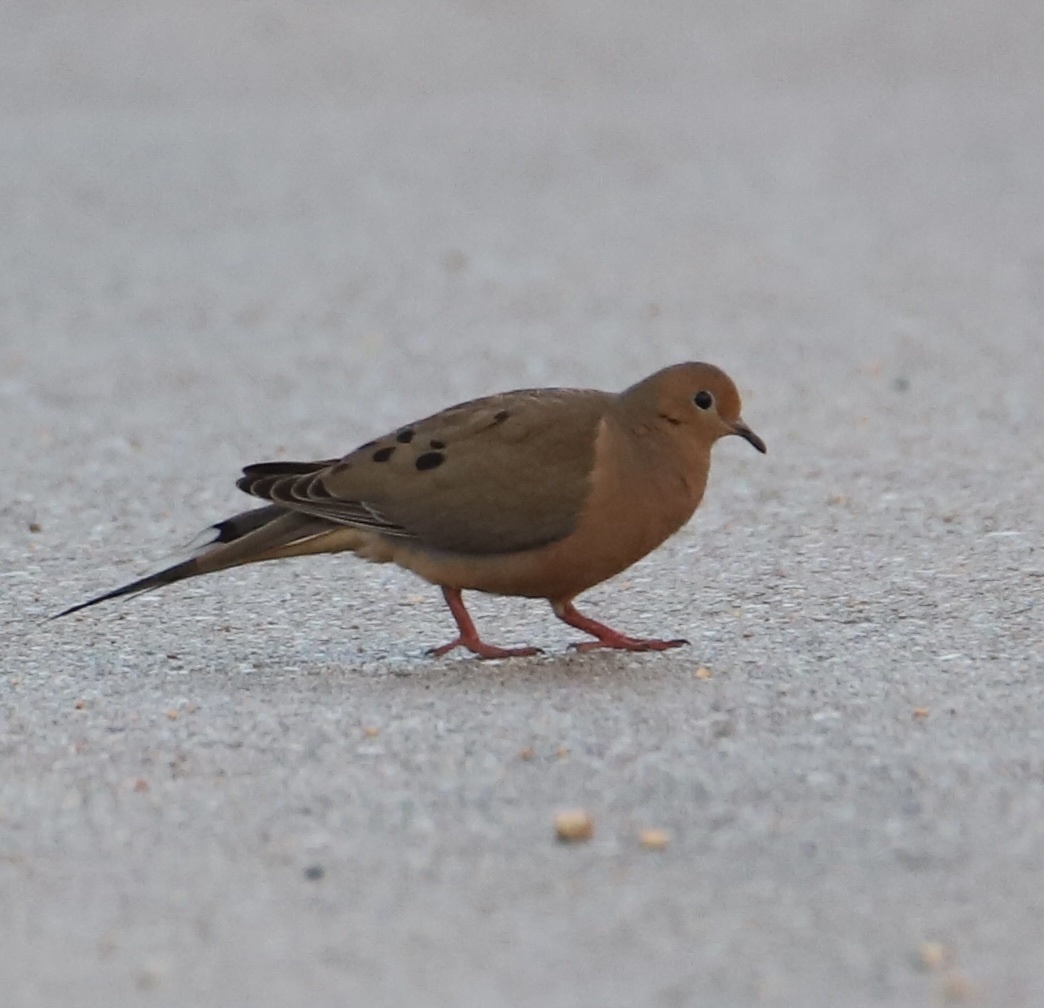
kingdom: Animalia
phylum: Chordata
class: Aves
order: Columbiformes
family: Columbidae
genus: Zenaida
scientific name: Zenaida macroura
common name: Mourning dove
